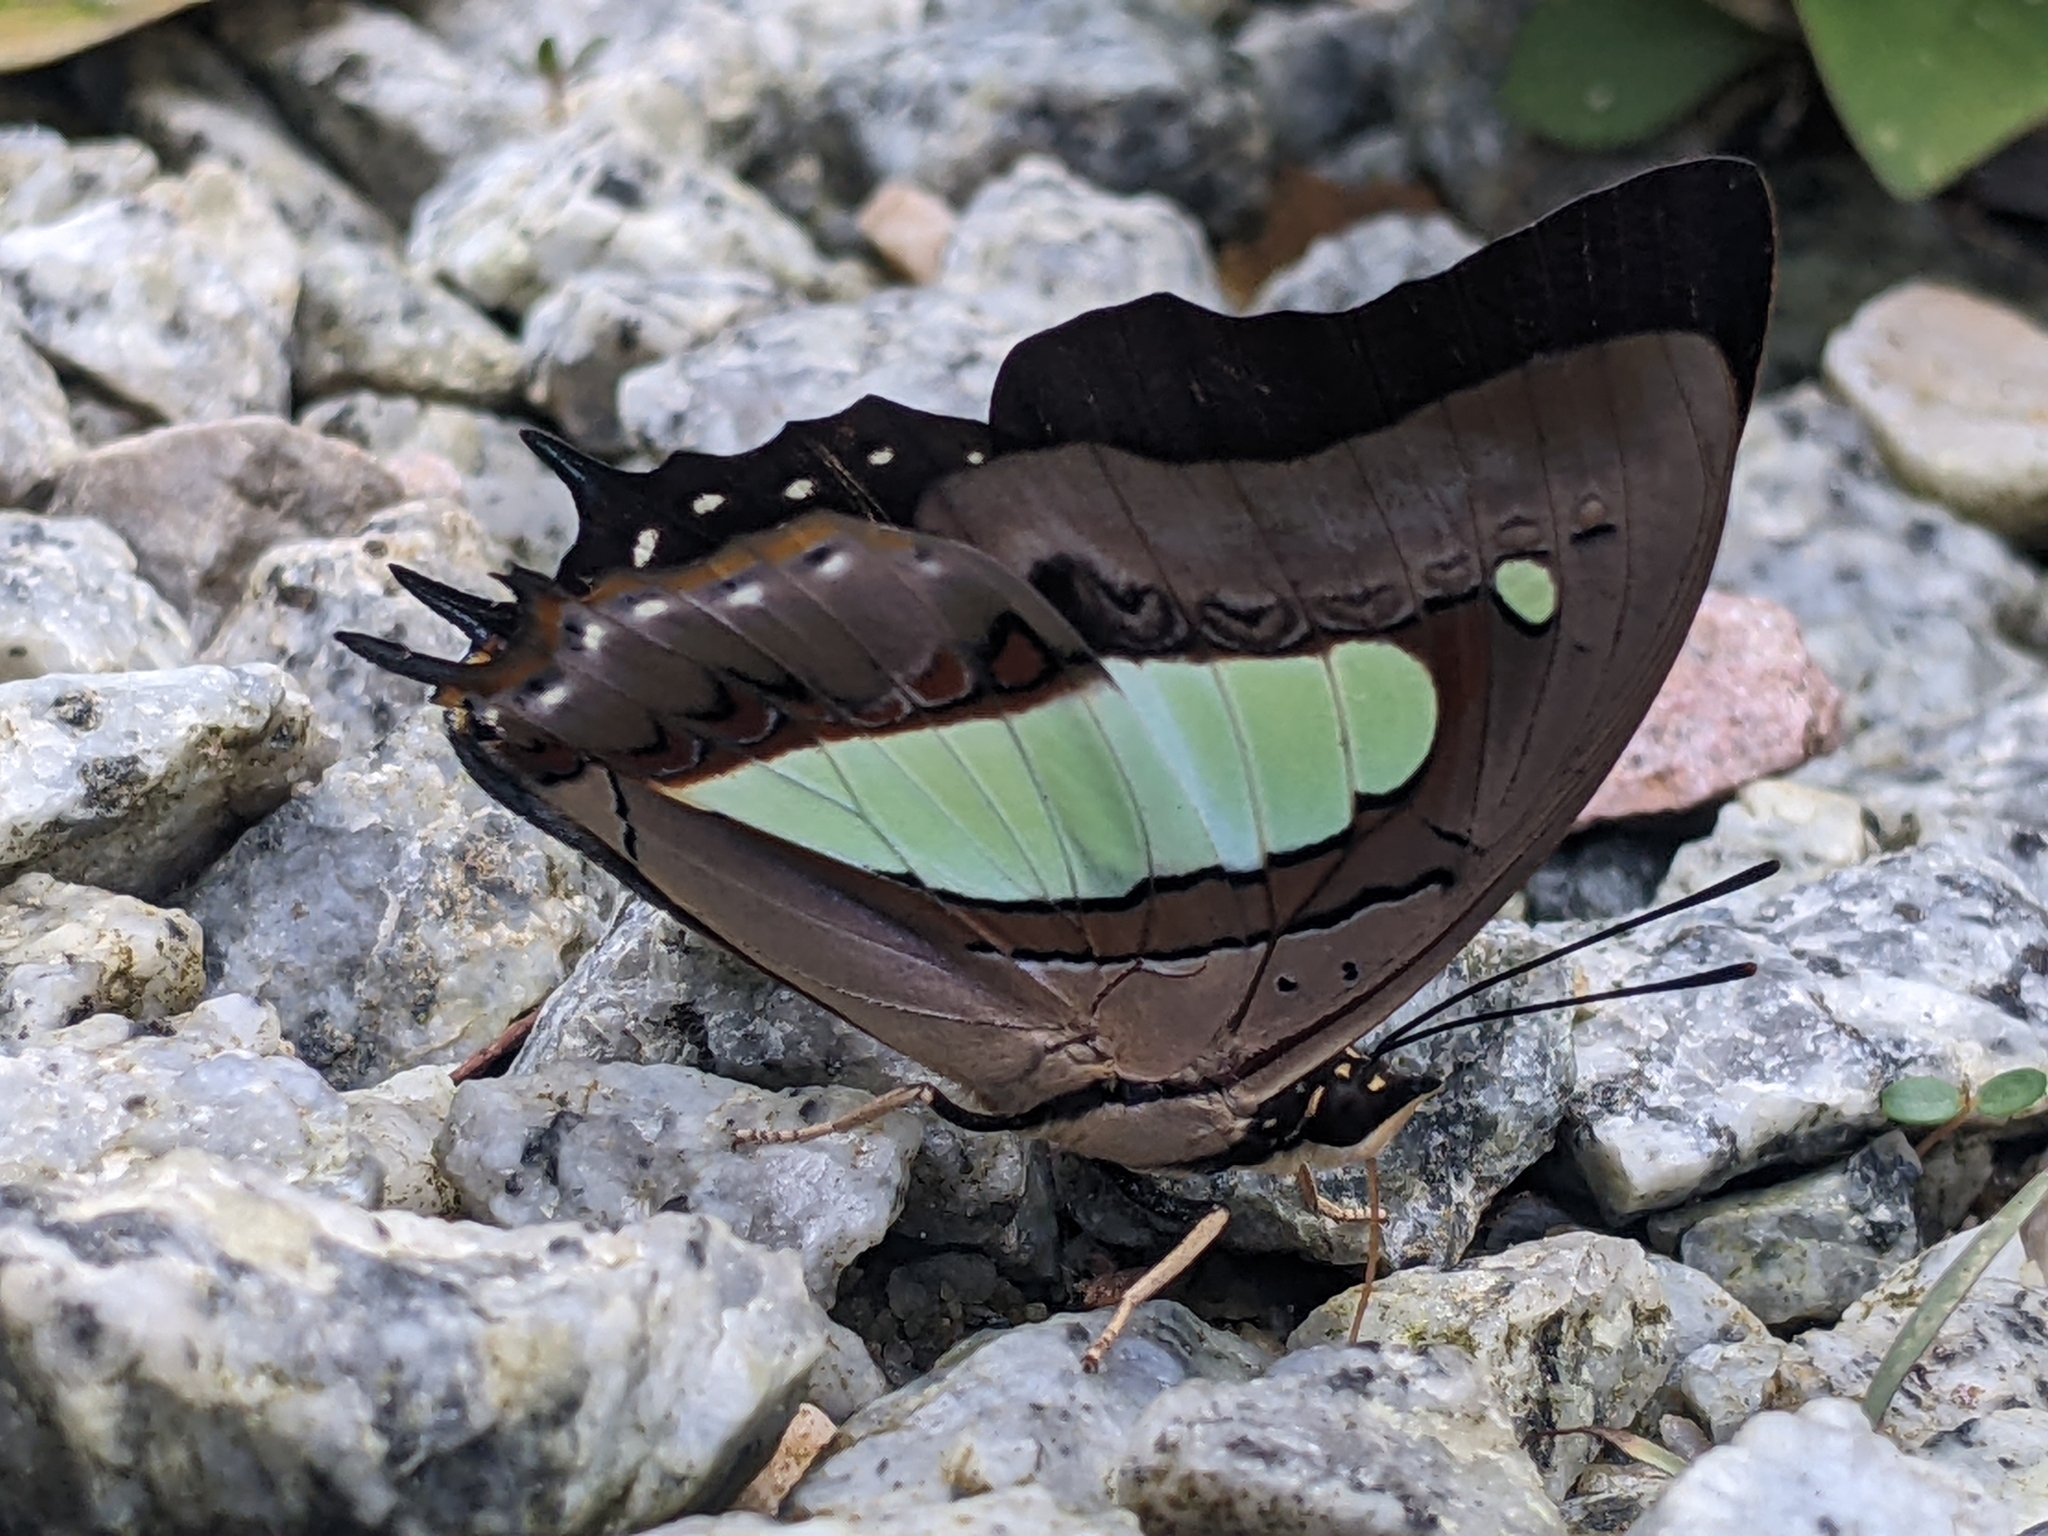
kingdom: Animalia
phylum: Arthropoda
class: Insecta
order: Lepidoptera
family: Nymphalidae
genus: Polyura
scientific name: Polyura athamas
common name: Common nawab
